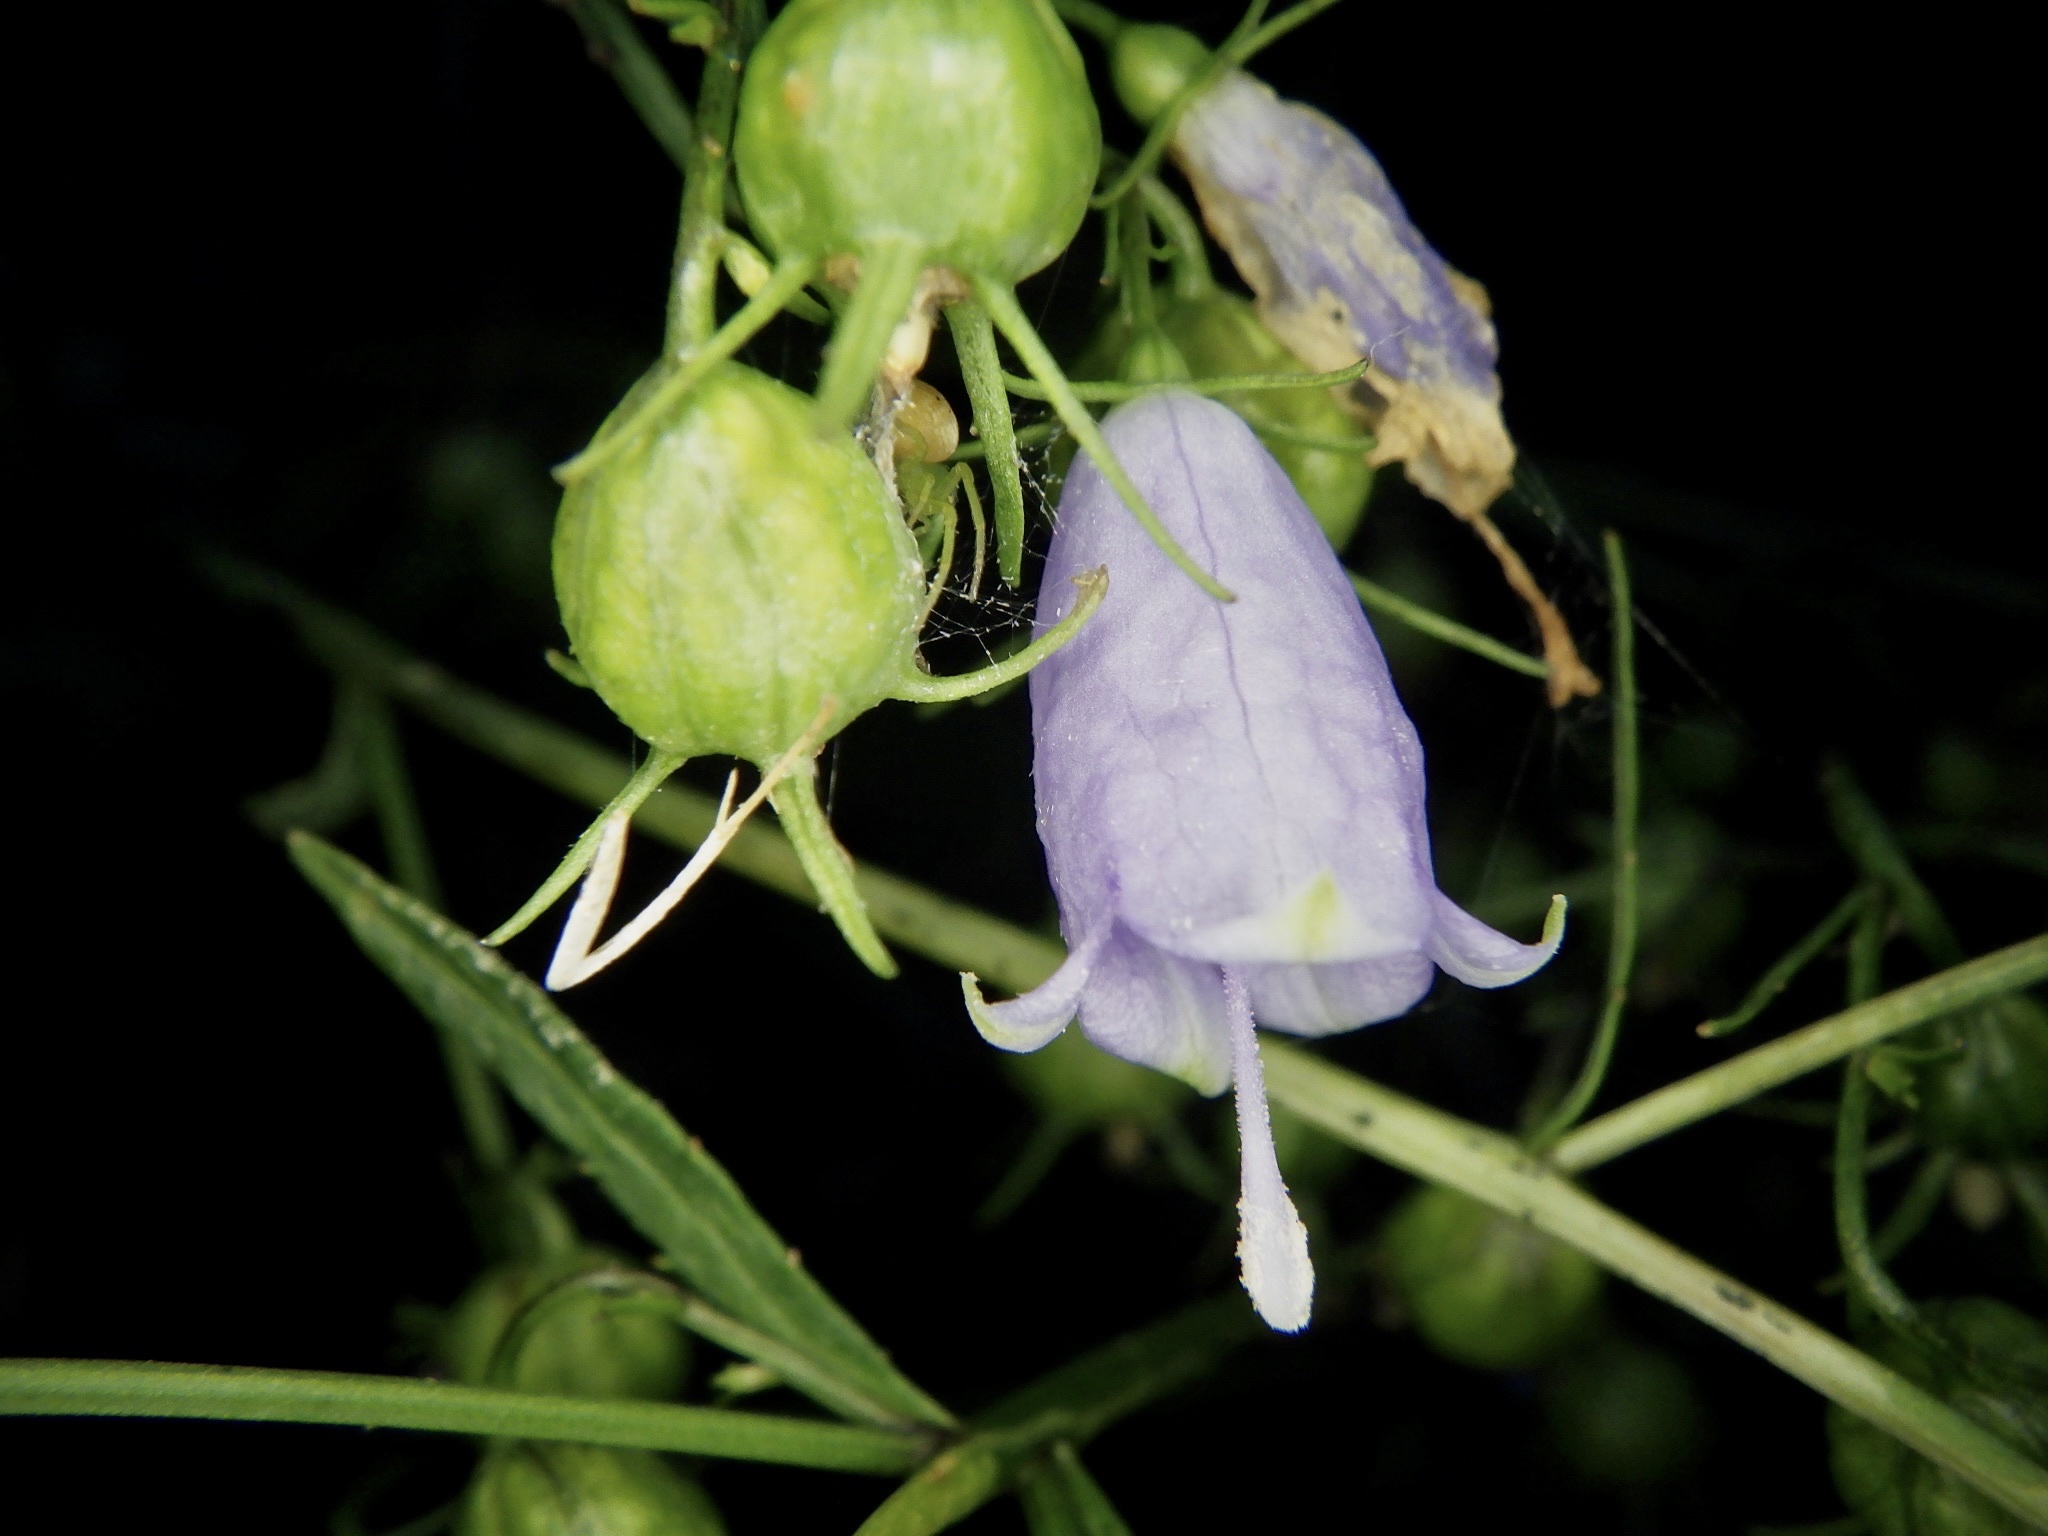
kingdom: Plantae
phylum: Tracheophyta
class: Magnoliopsida
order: Asterales
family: Campanulaceae
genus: Adenophora
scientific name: Adenophora triphylla
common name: Giant-bellflower
